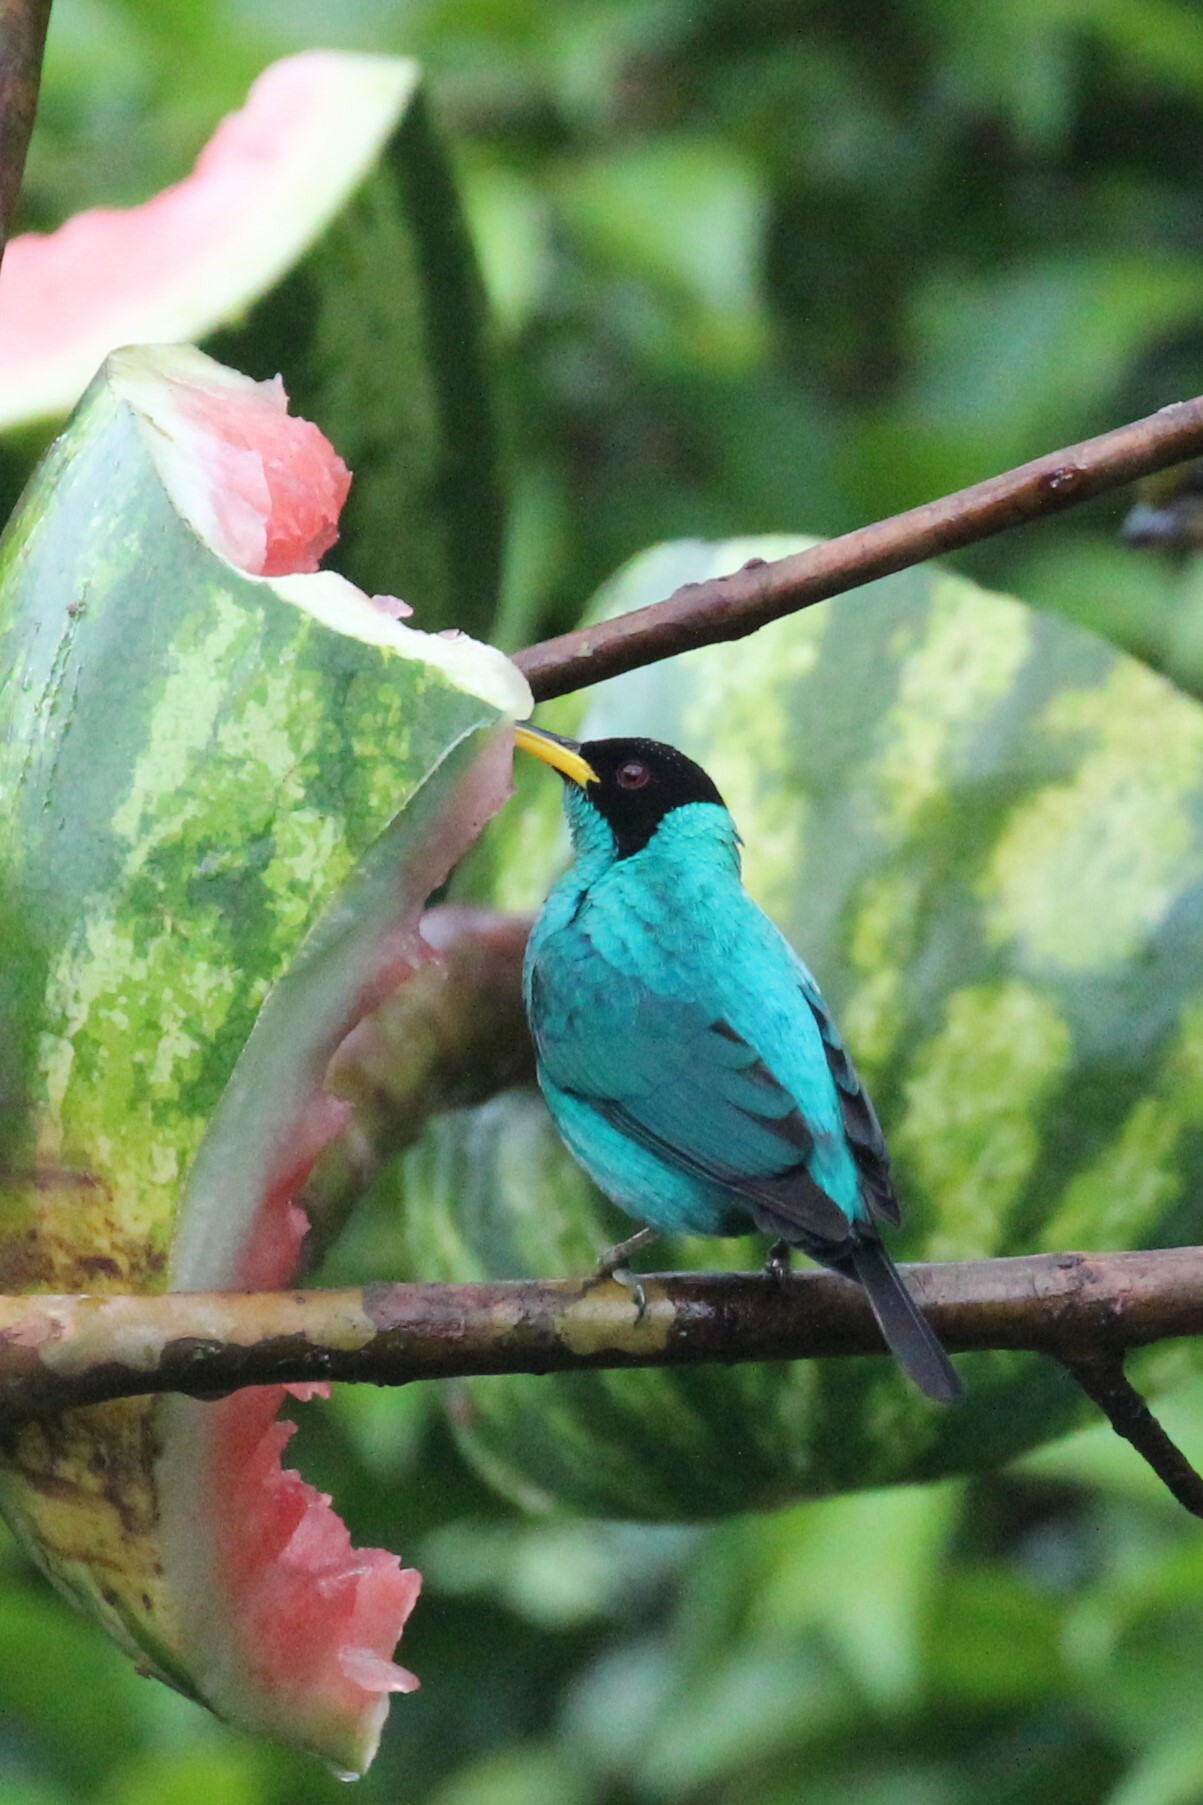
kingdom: Animalia
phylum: Chordata
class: Aves
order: Passeriformes
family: Thraupidae
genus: Chlorophanes
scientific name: Chlorophanes spiza
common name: Green honeycreeper
